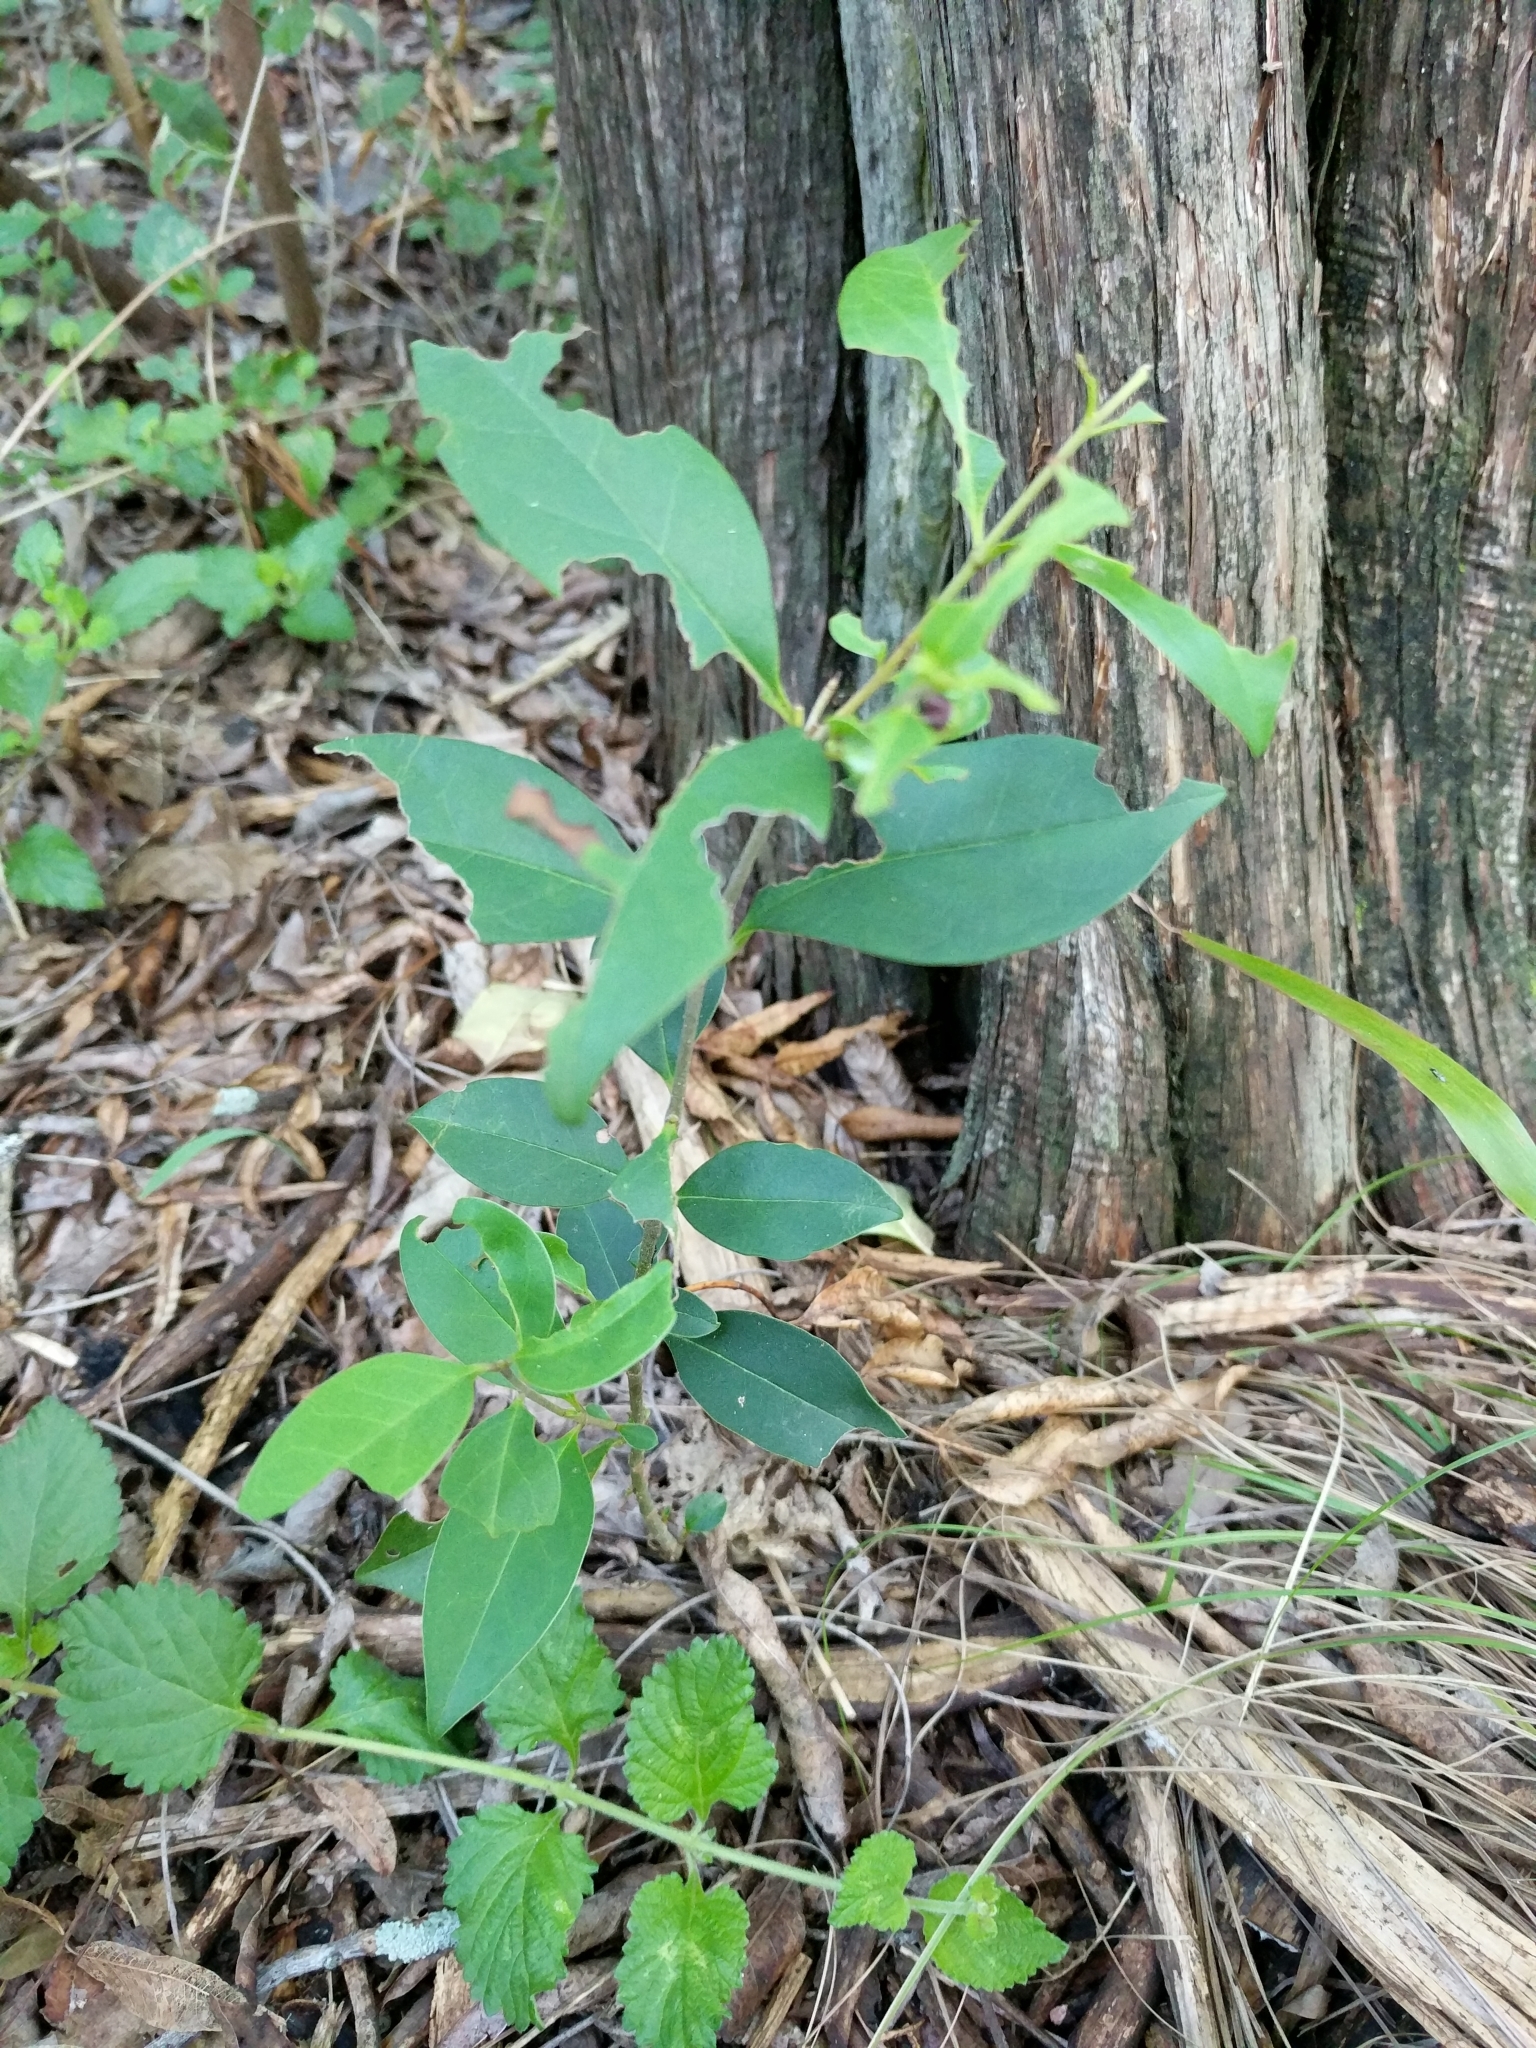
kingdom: Plantae
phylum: Tracheophyta
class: Magnoliopsida
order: Lamiales
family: Oleaceae
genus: Ligustrum
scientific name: Ligustrum lucidum
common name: Glossy privet
